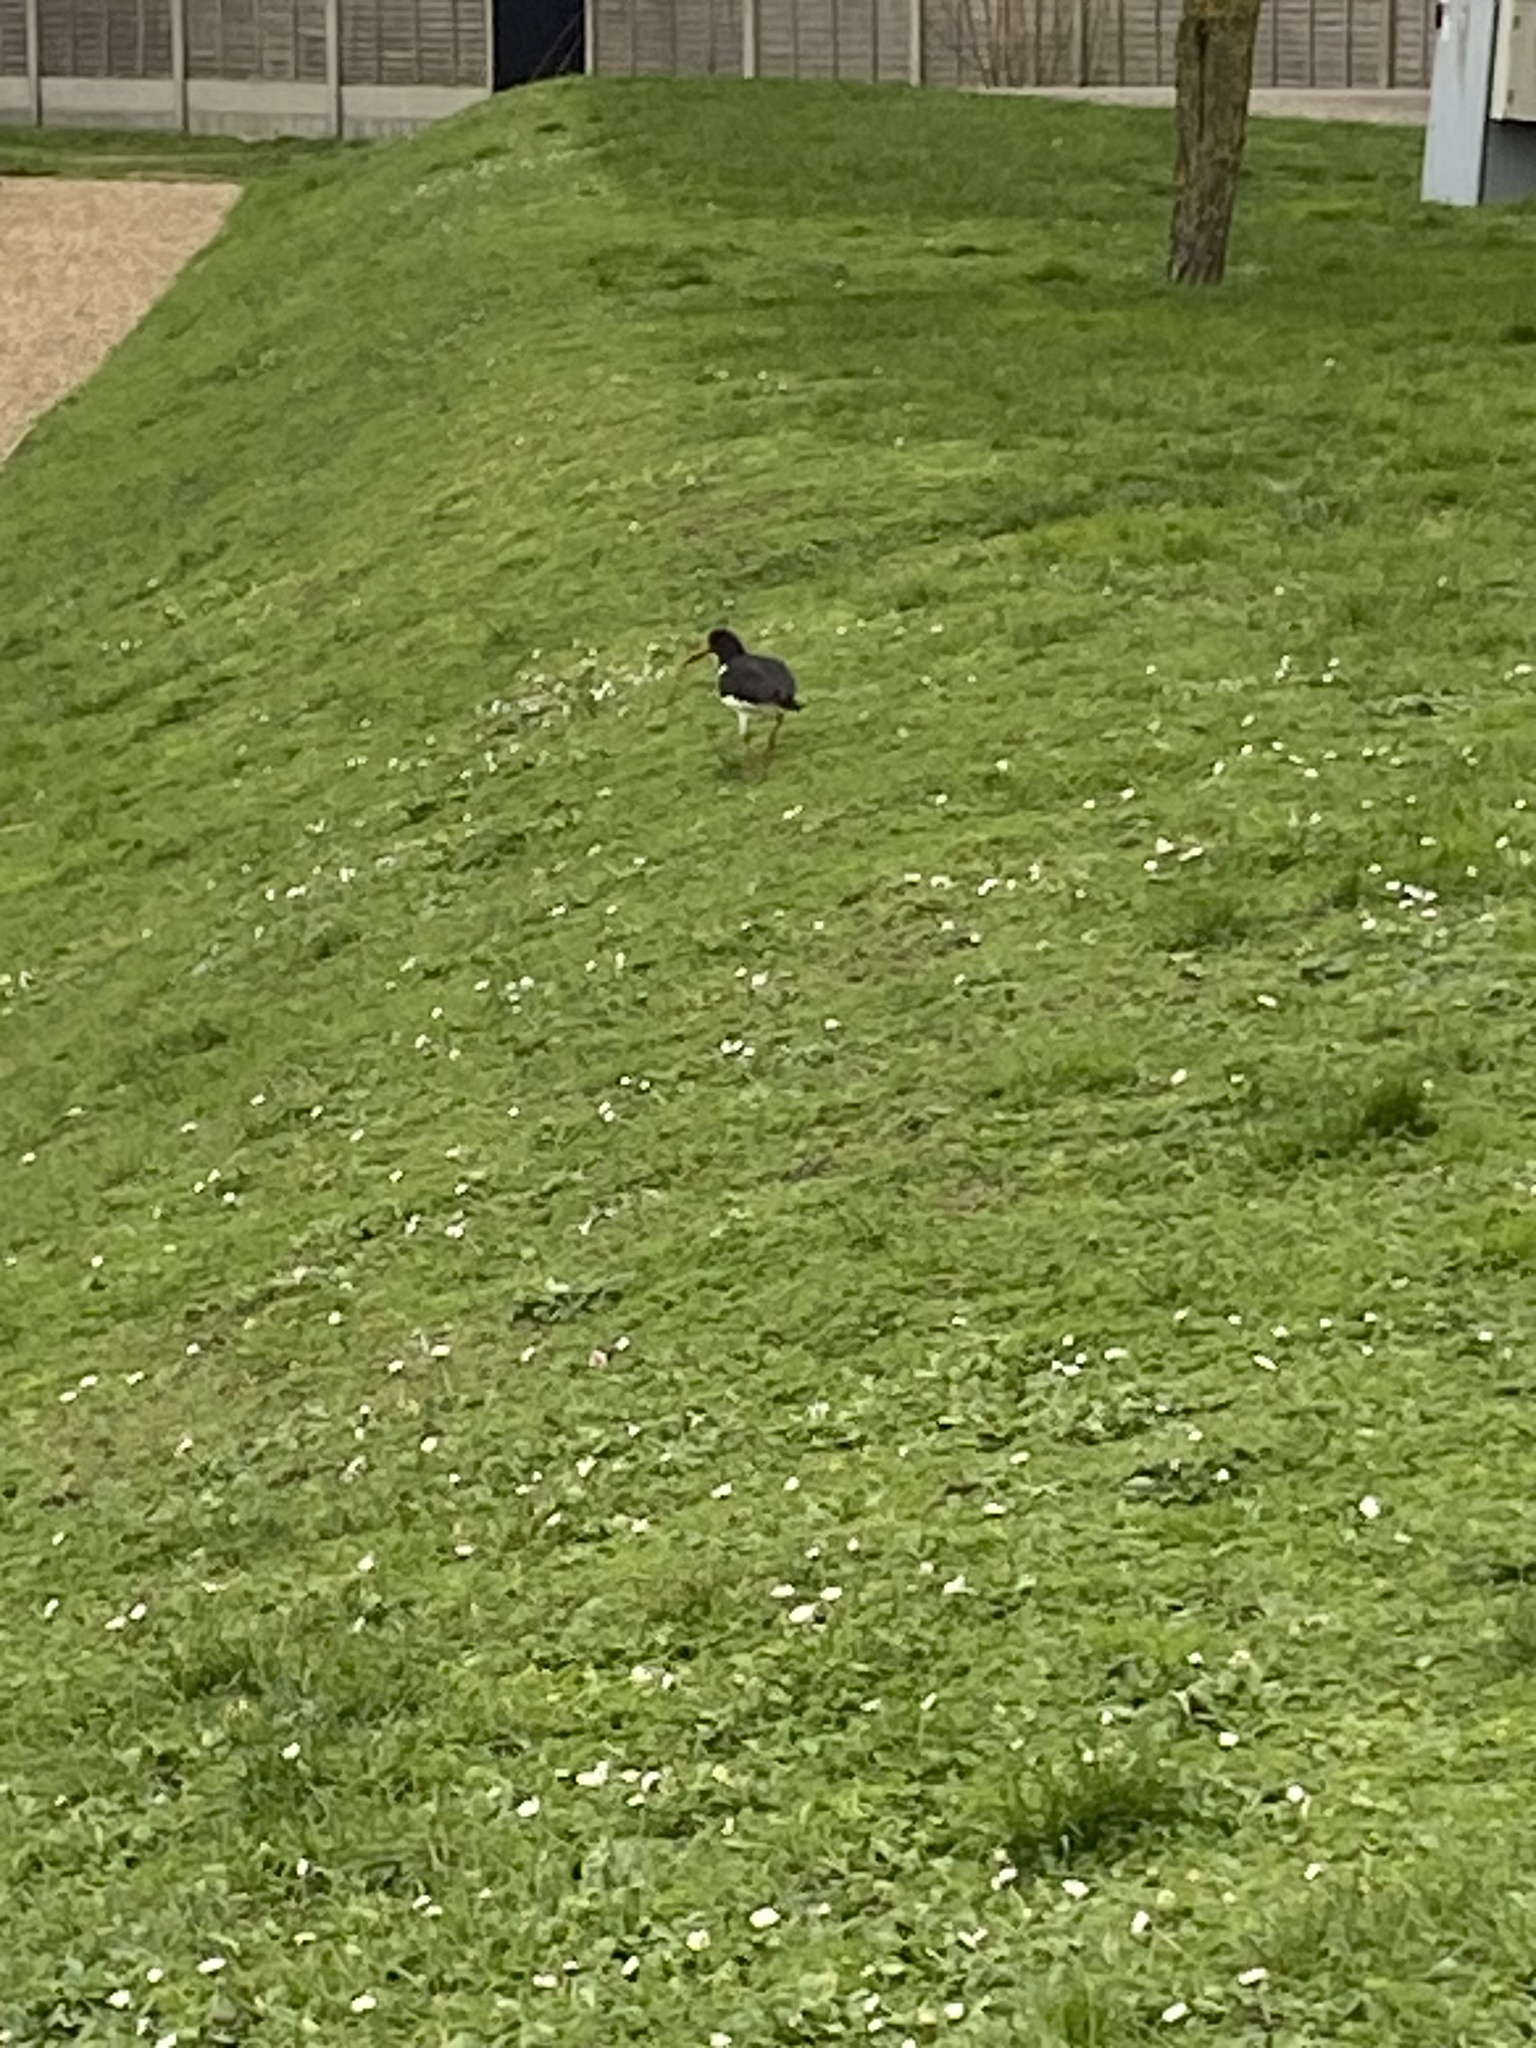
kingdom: Animalia
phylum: Chordata
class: Aves
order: Charadriiformes
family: Haematopodidae
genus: Haematopus
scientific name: Haematopus ostralegus
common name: Eurasian oystercatcher
